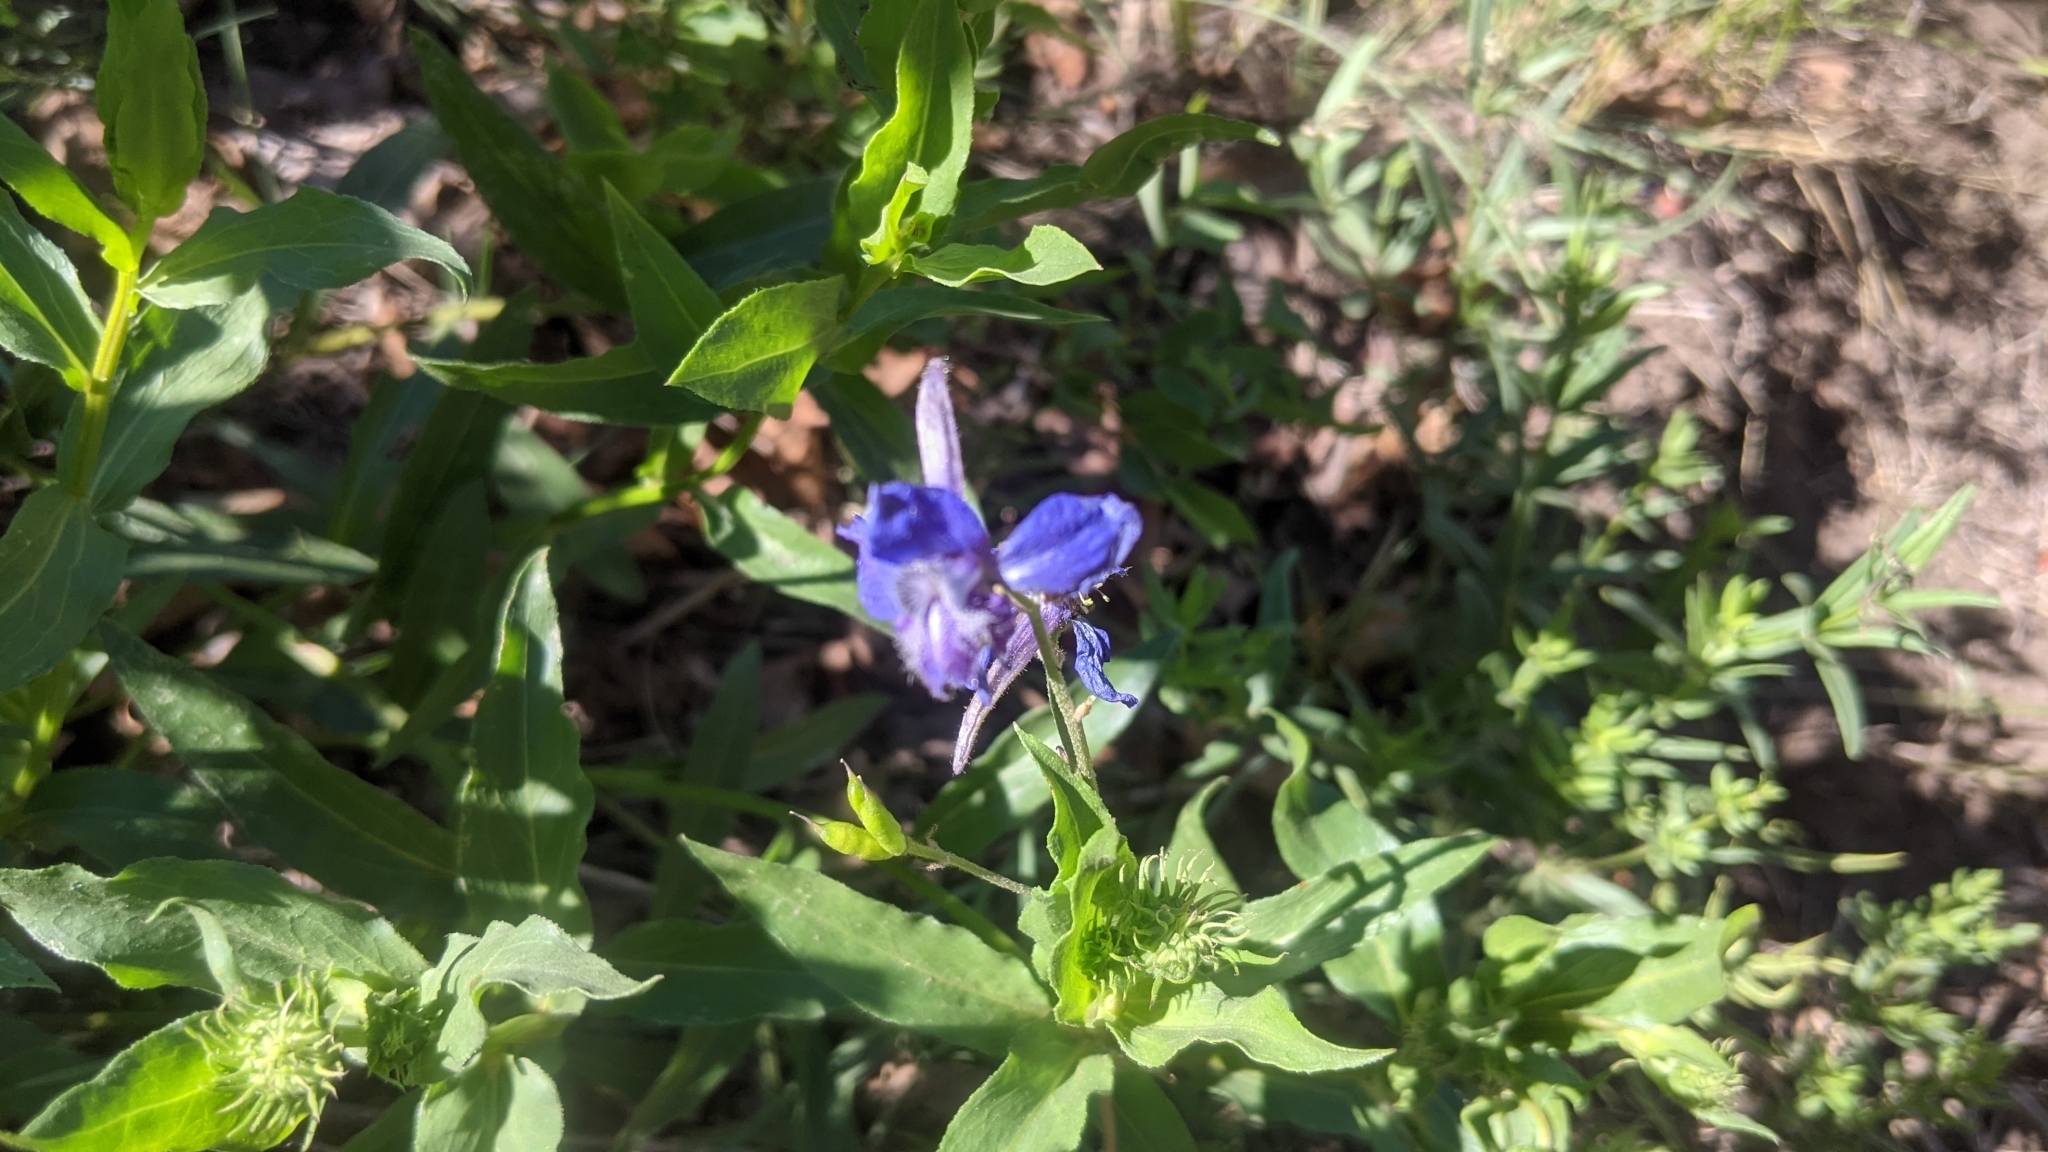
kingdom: Plantae
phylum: Tracheophyta
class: Magnoliopsida
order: Ranunculales
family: Ranunculaceae
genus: Delphinium
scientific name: Delphinium nuttallianum
